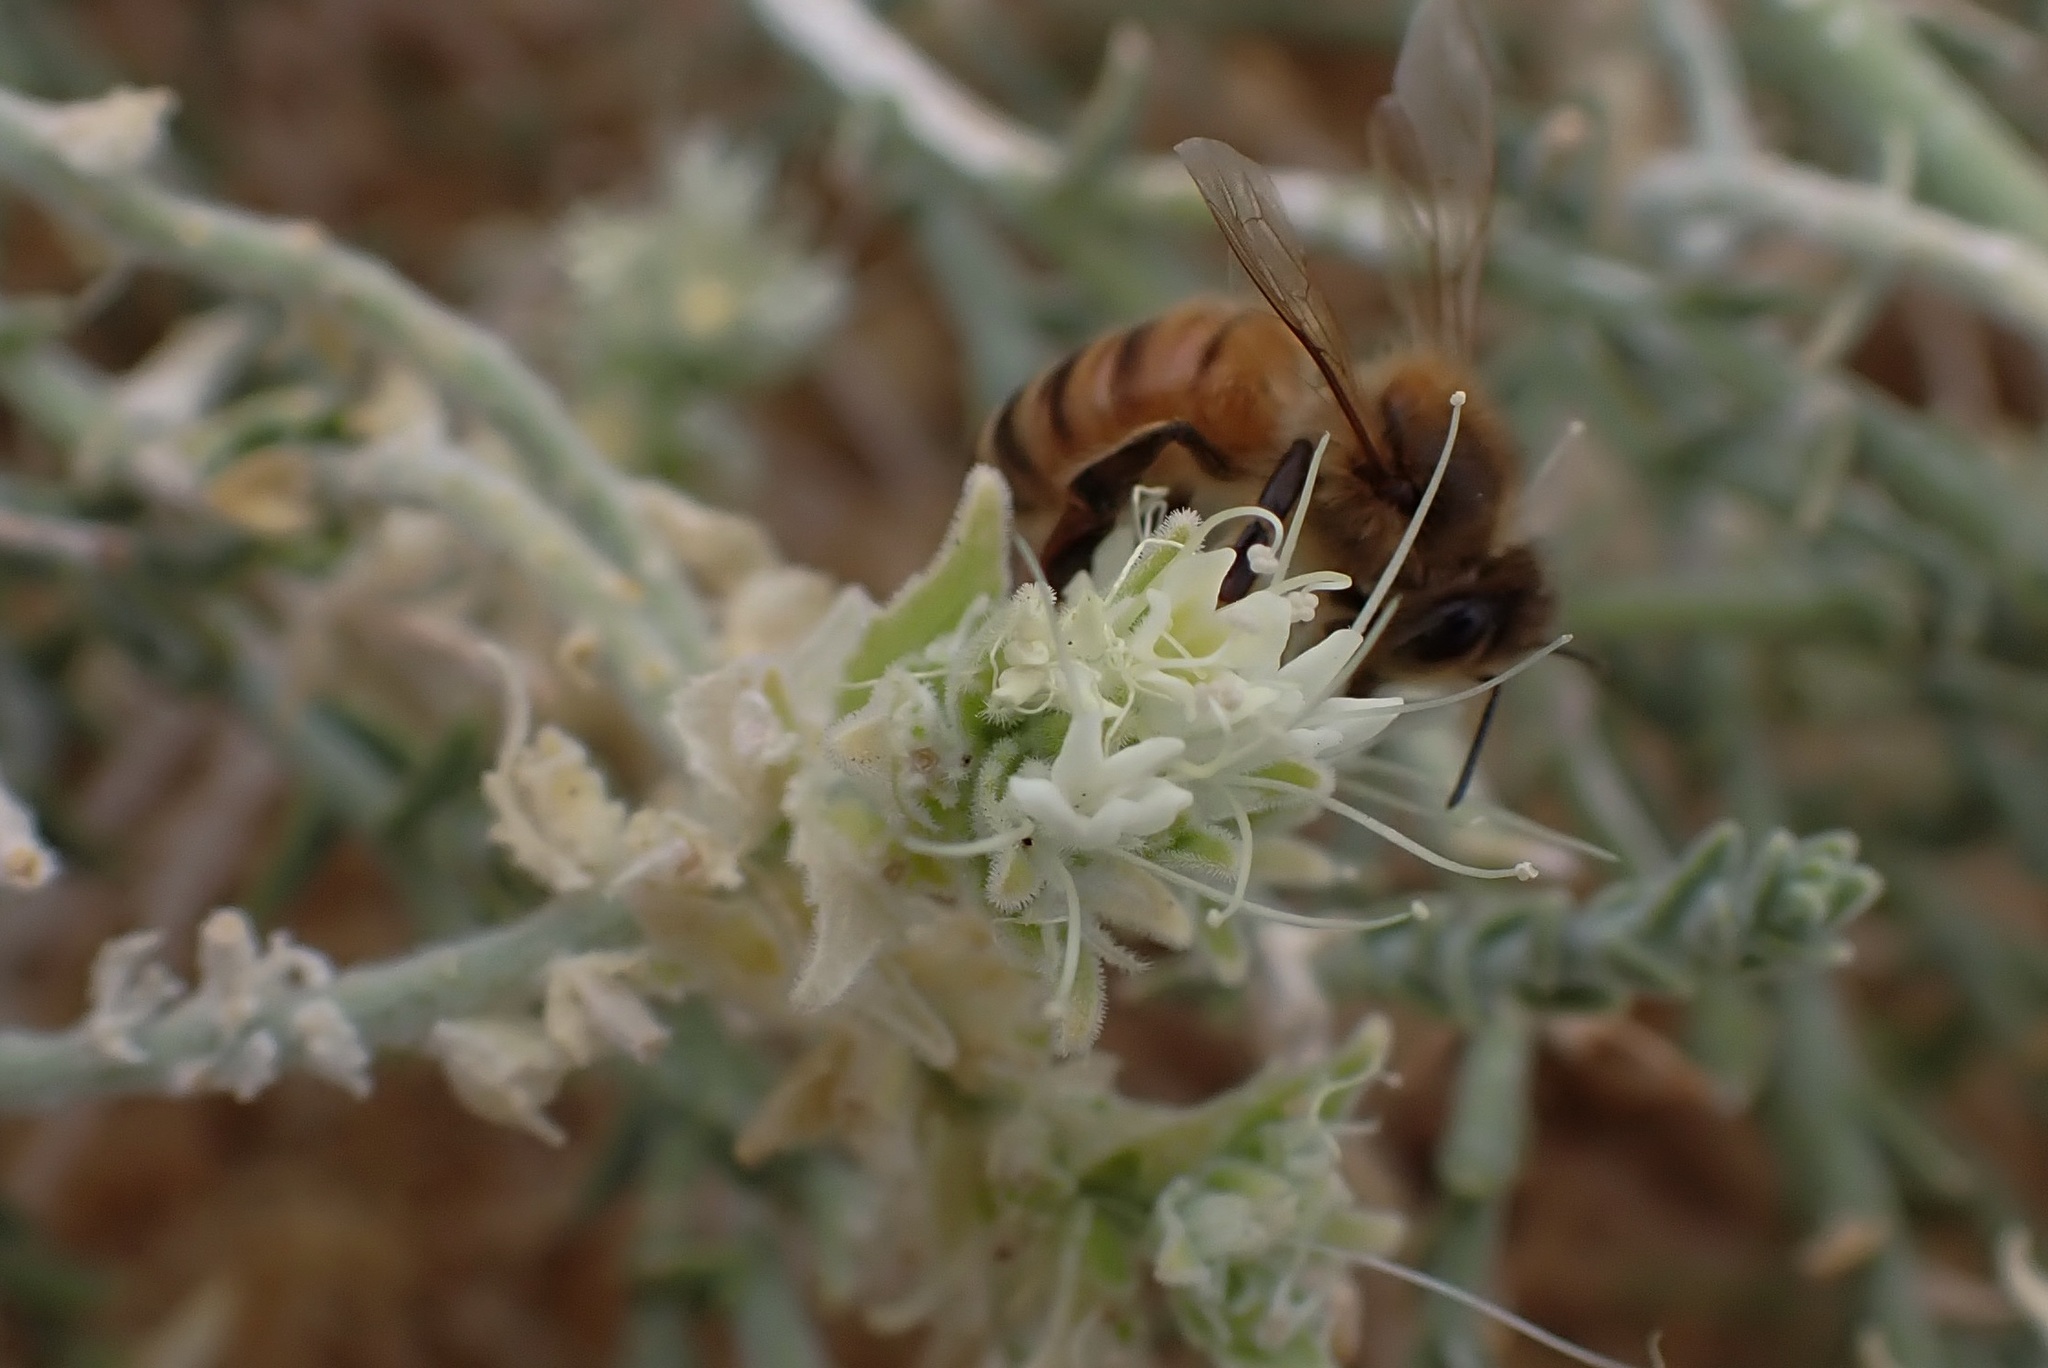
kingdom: Animalia
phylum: Arthropoda
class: Insecta
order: Hymenoptera
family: Apidae
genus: Apis
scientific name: Apis mellifera
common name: Honey bee
